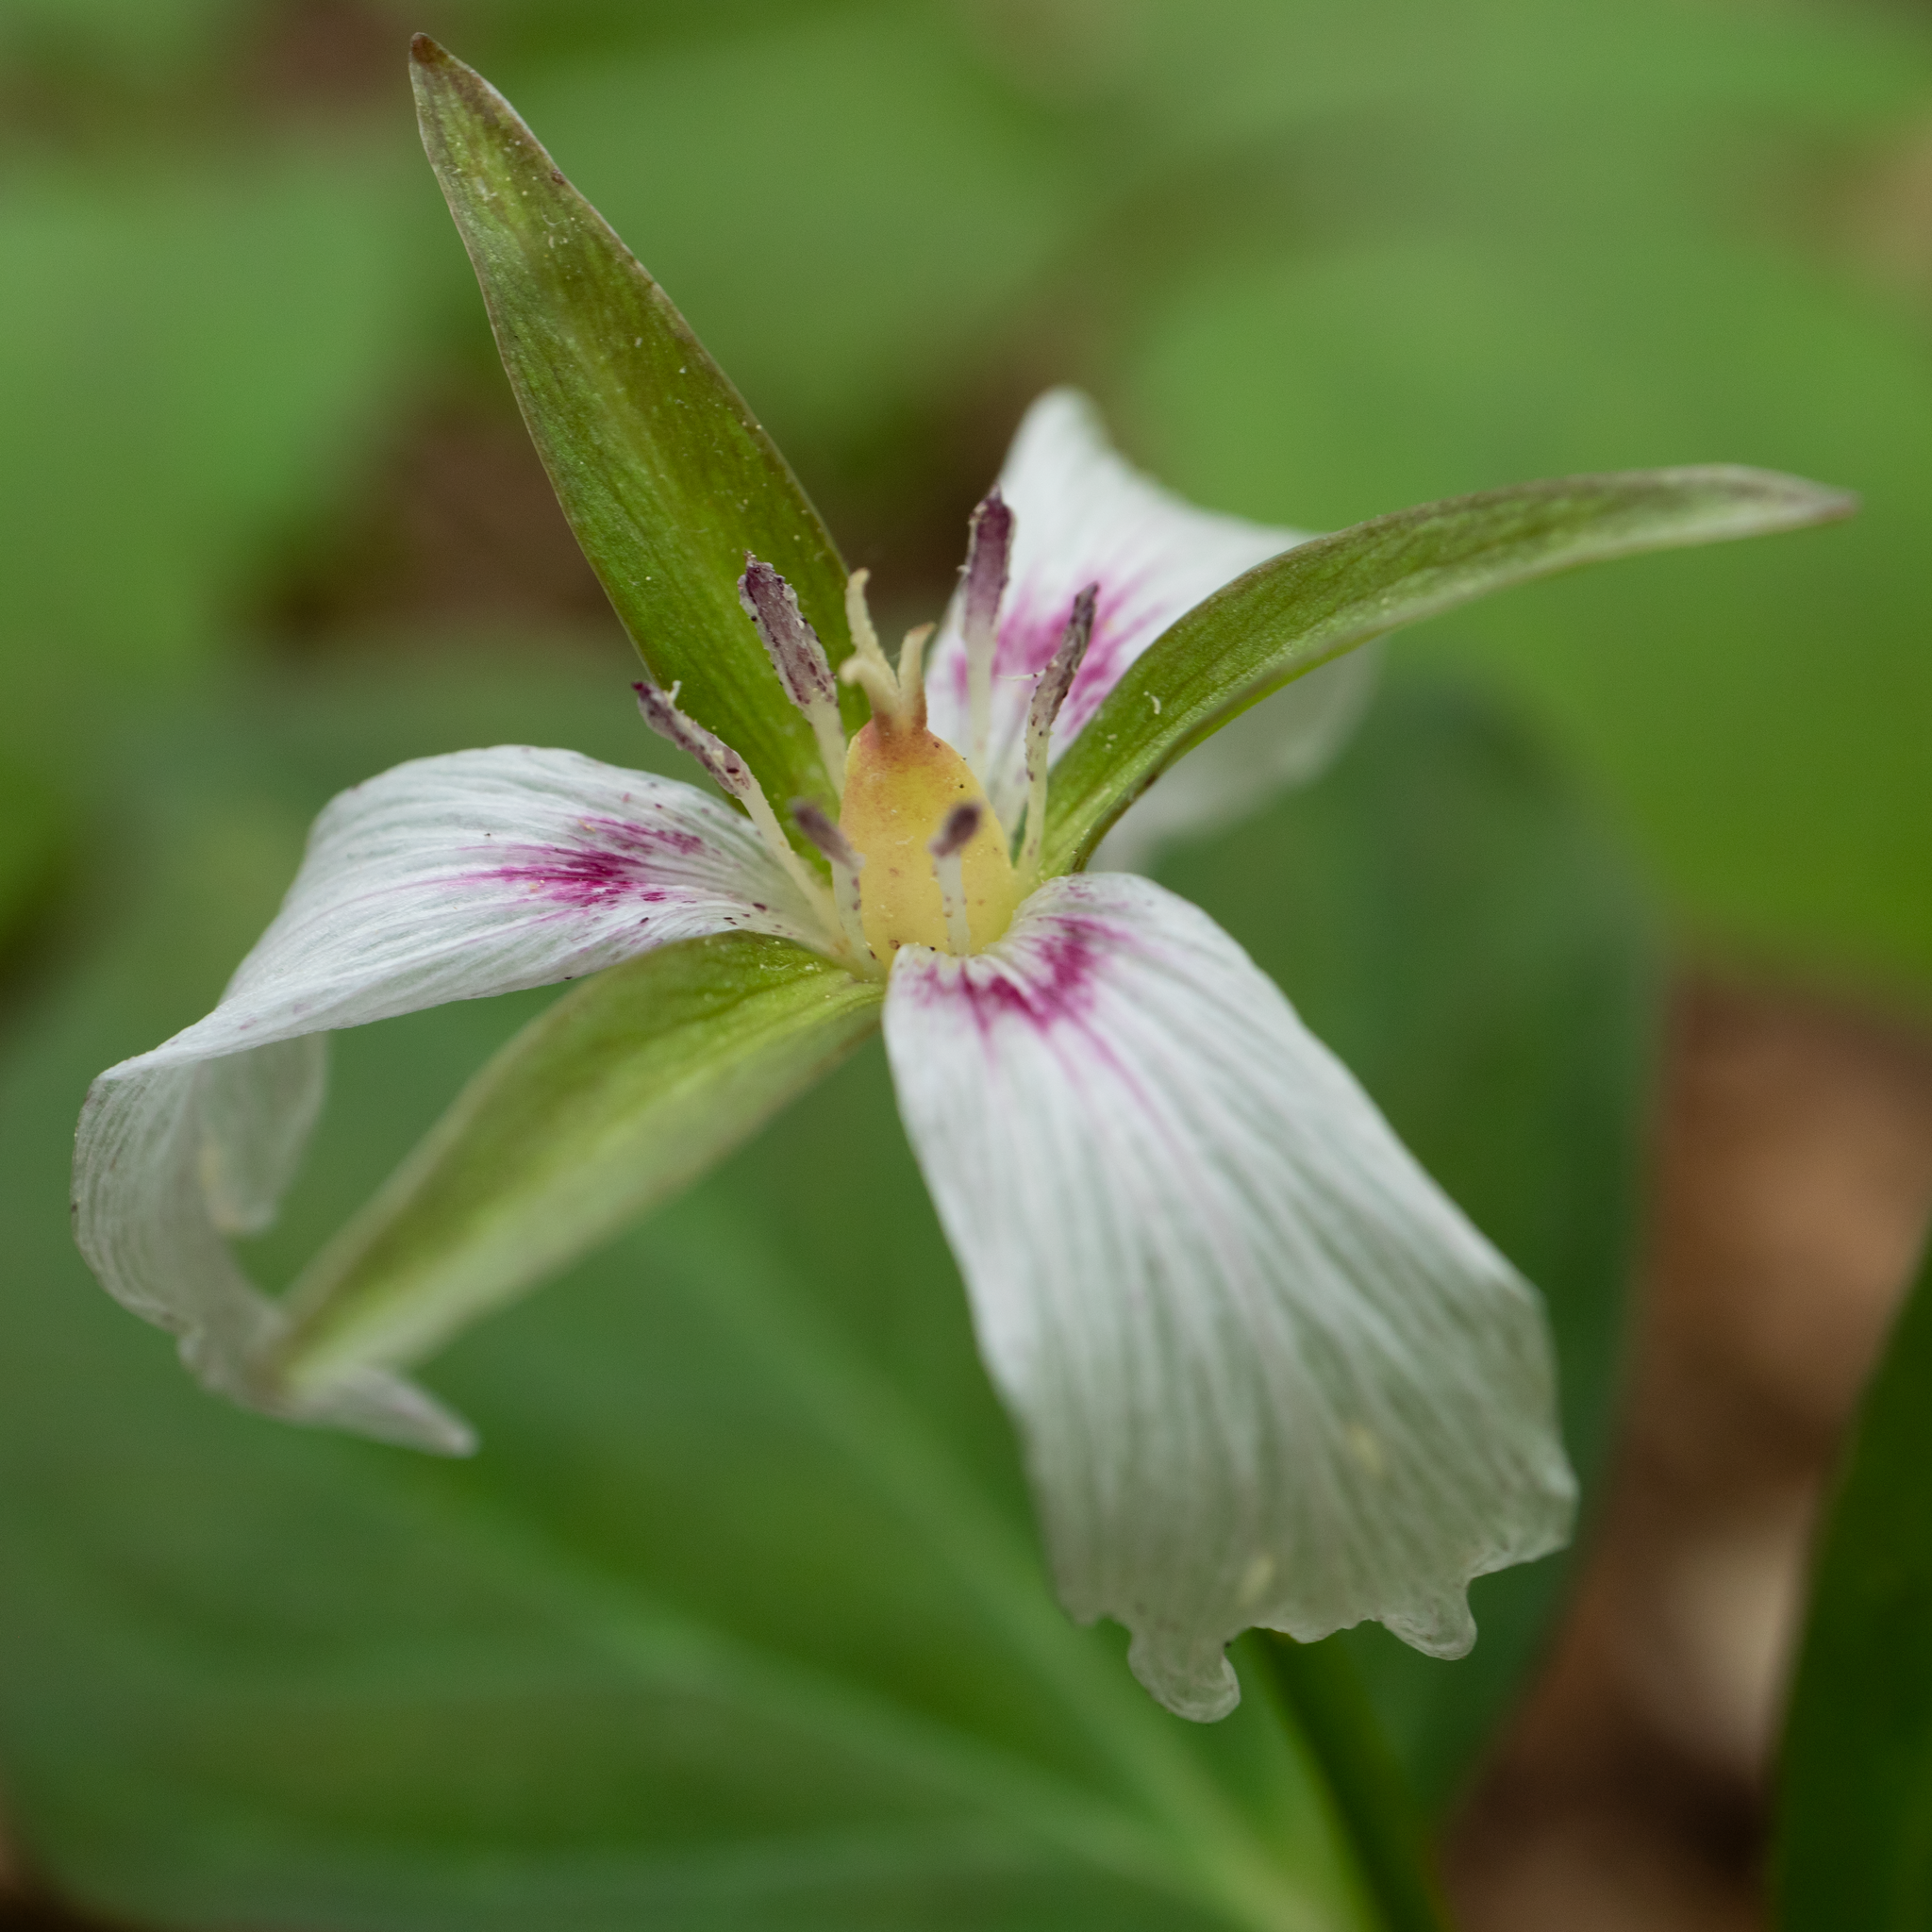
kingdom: Plantae
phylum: Tracheophyta
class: Liliopsida
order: Liliales
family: Melanthiaceae
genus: Trillium
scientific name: Trillium undulatum
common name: Paint trillium
